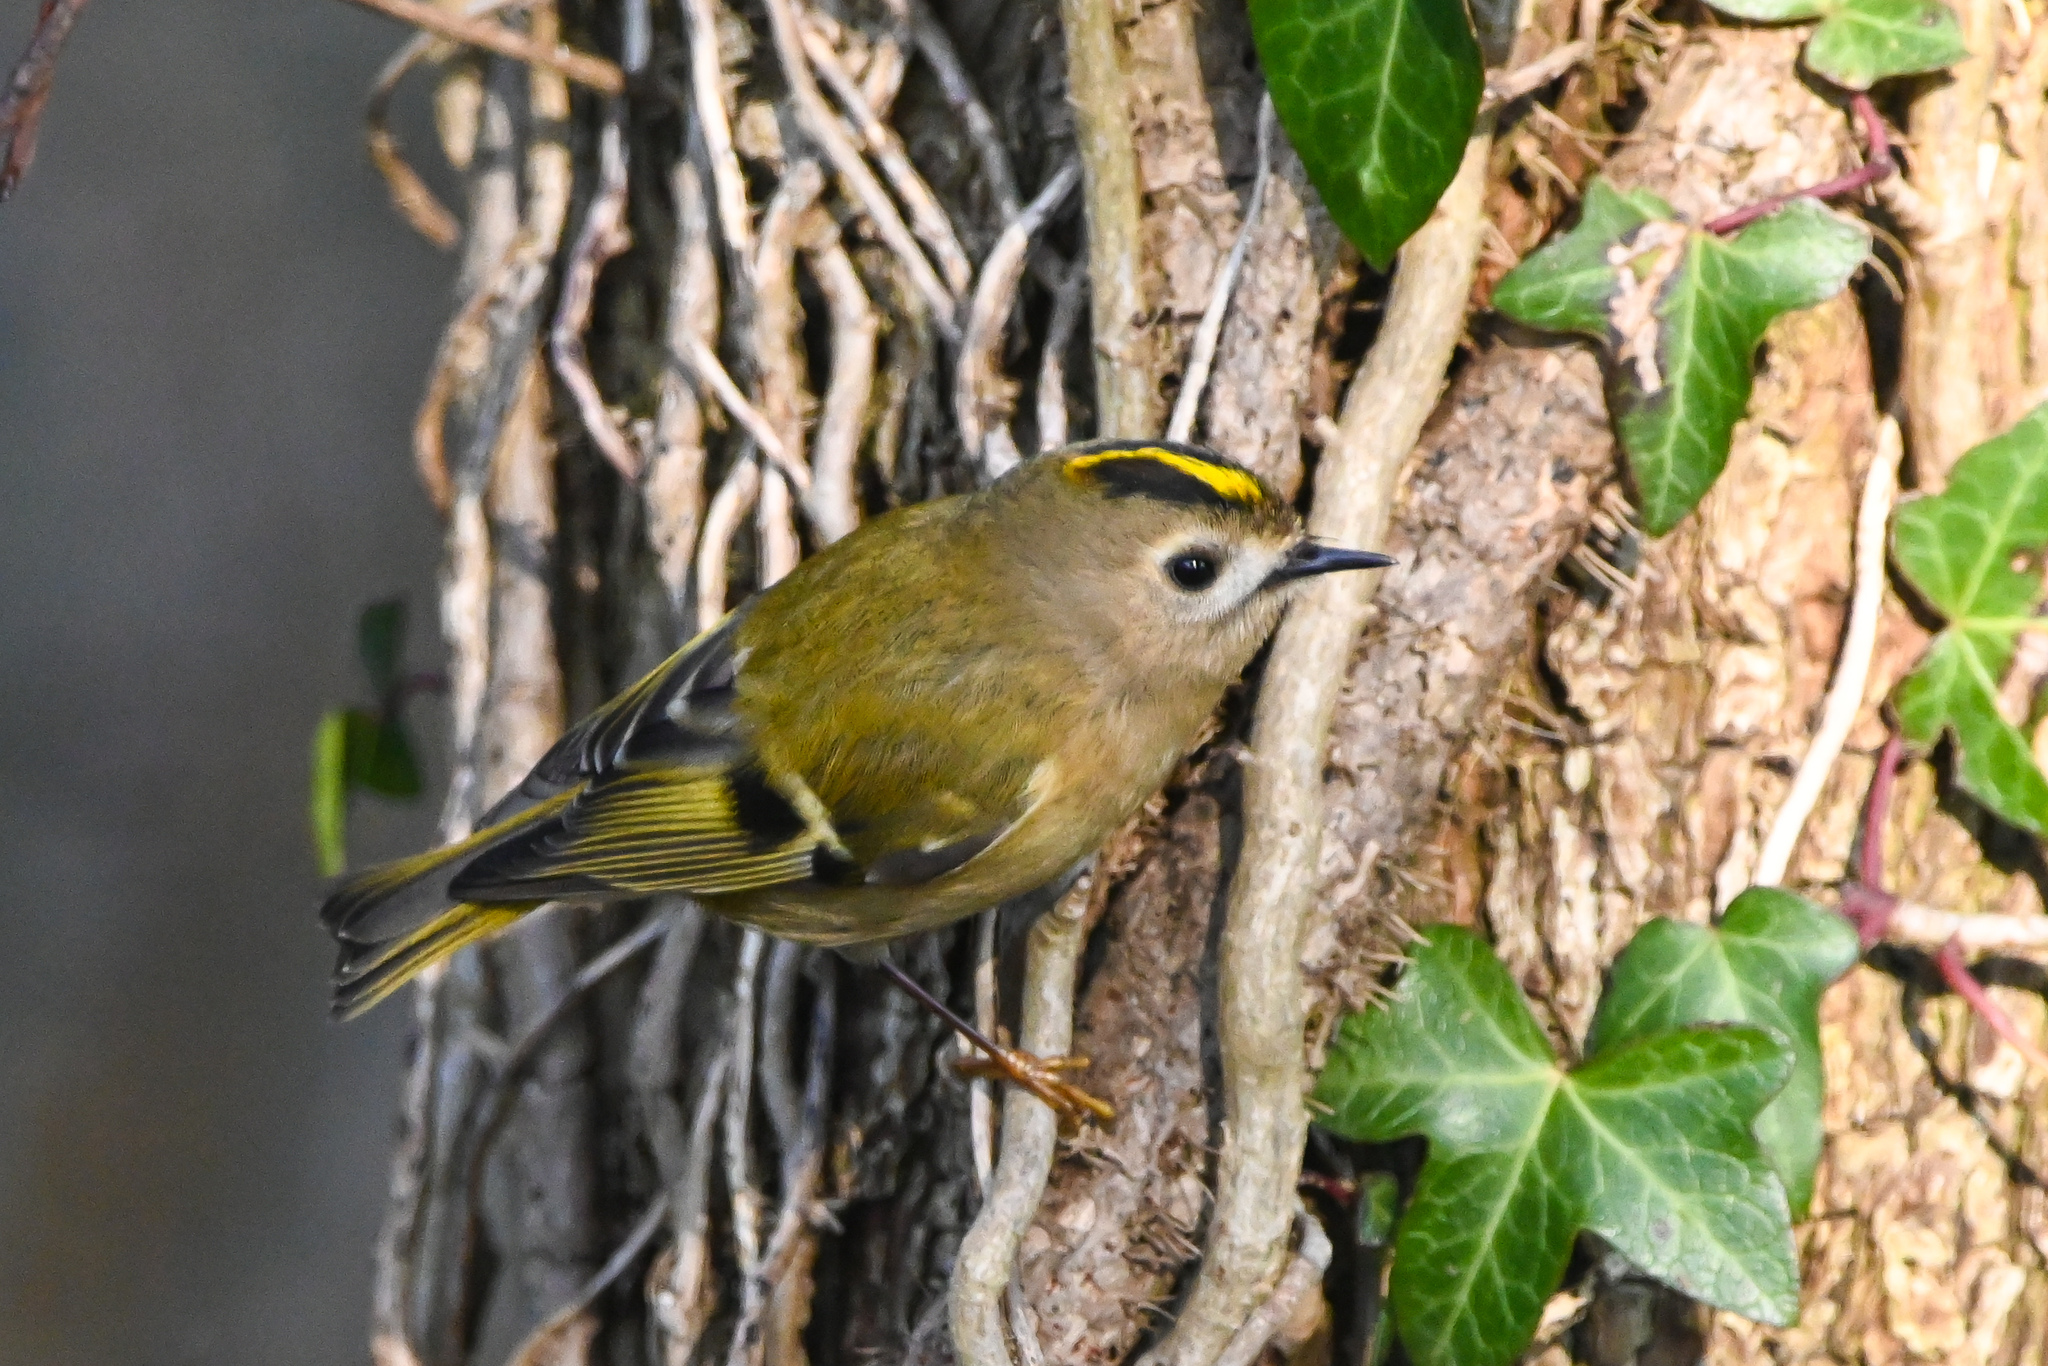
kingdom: Animalia
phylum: Chordata
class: Aves
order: Passeriformes
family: Regulidae
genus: Regulus
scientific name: Regulus regulus
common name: Goldcrest
